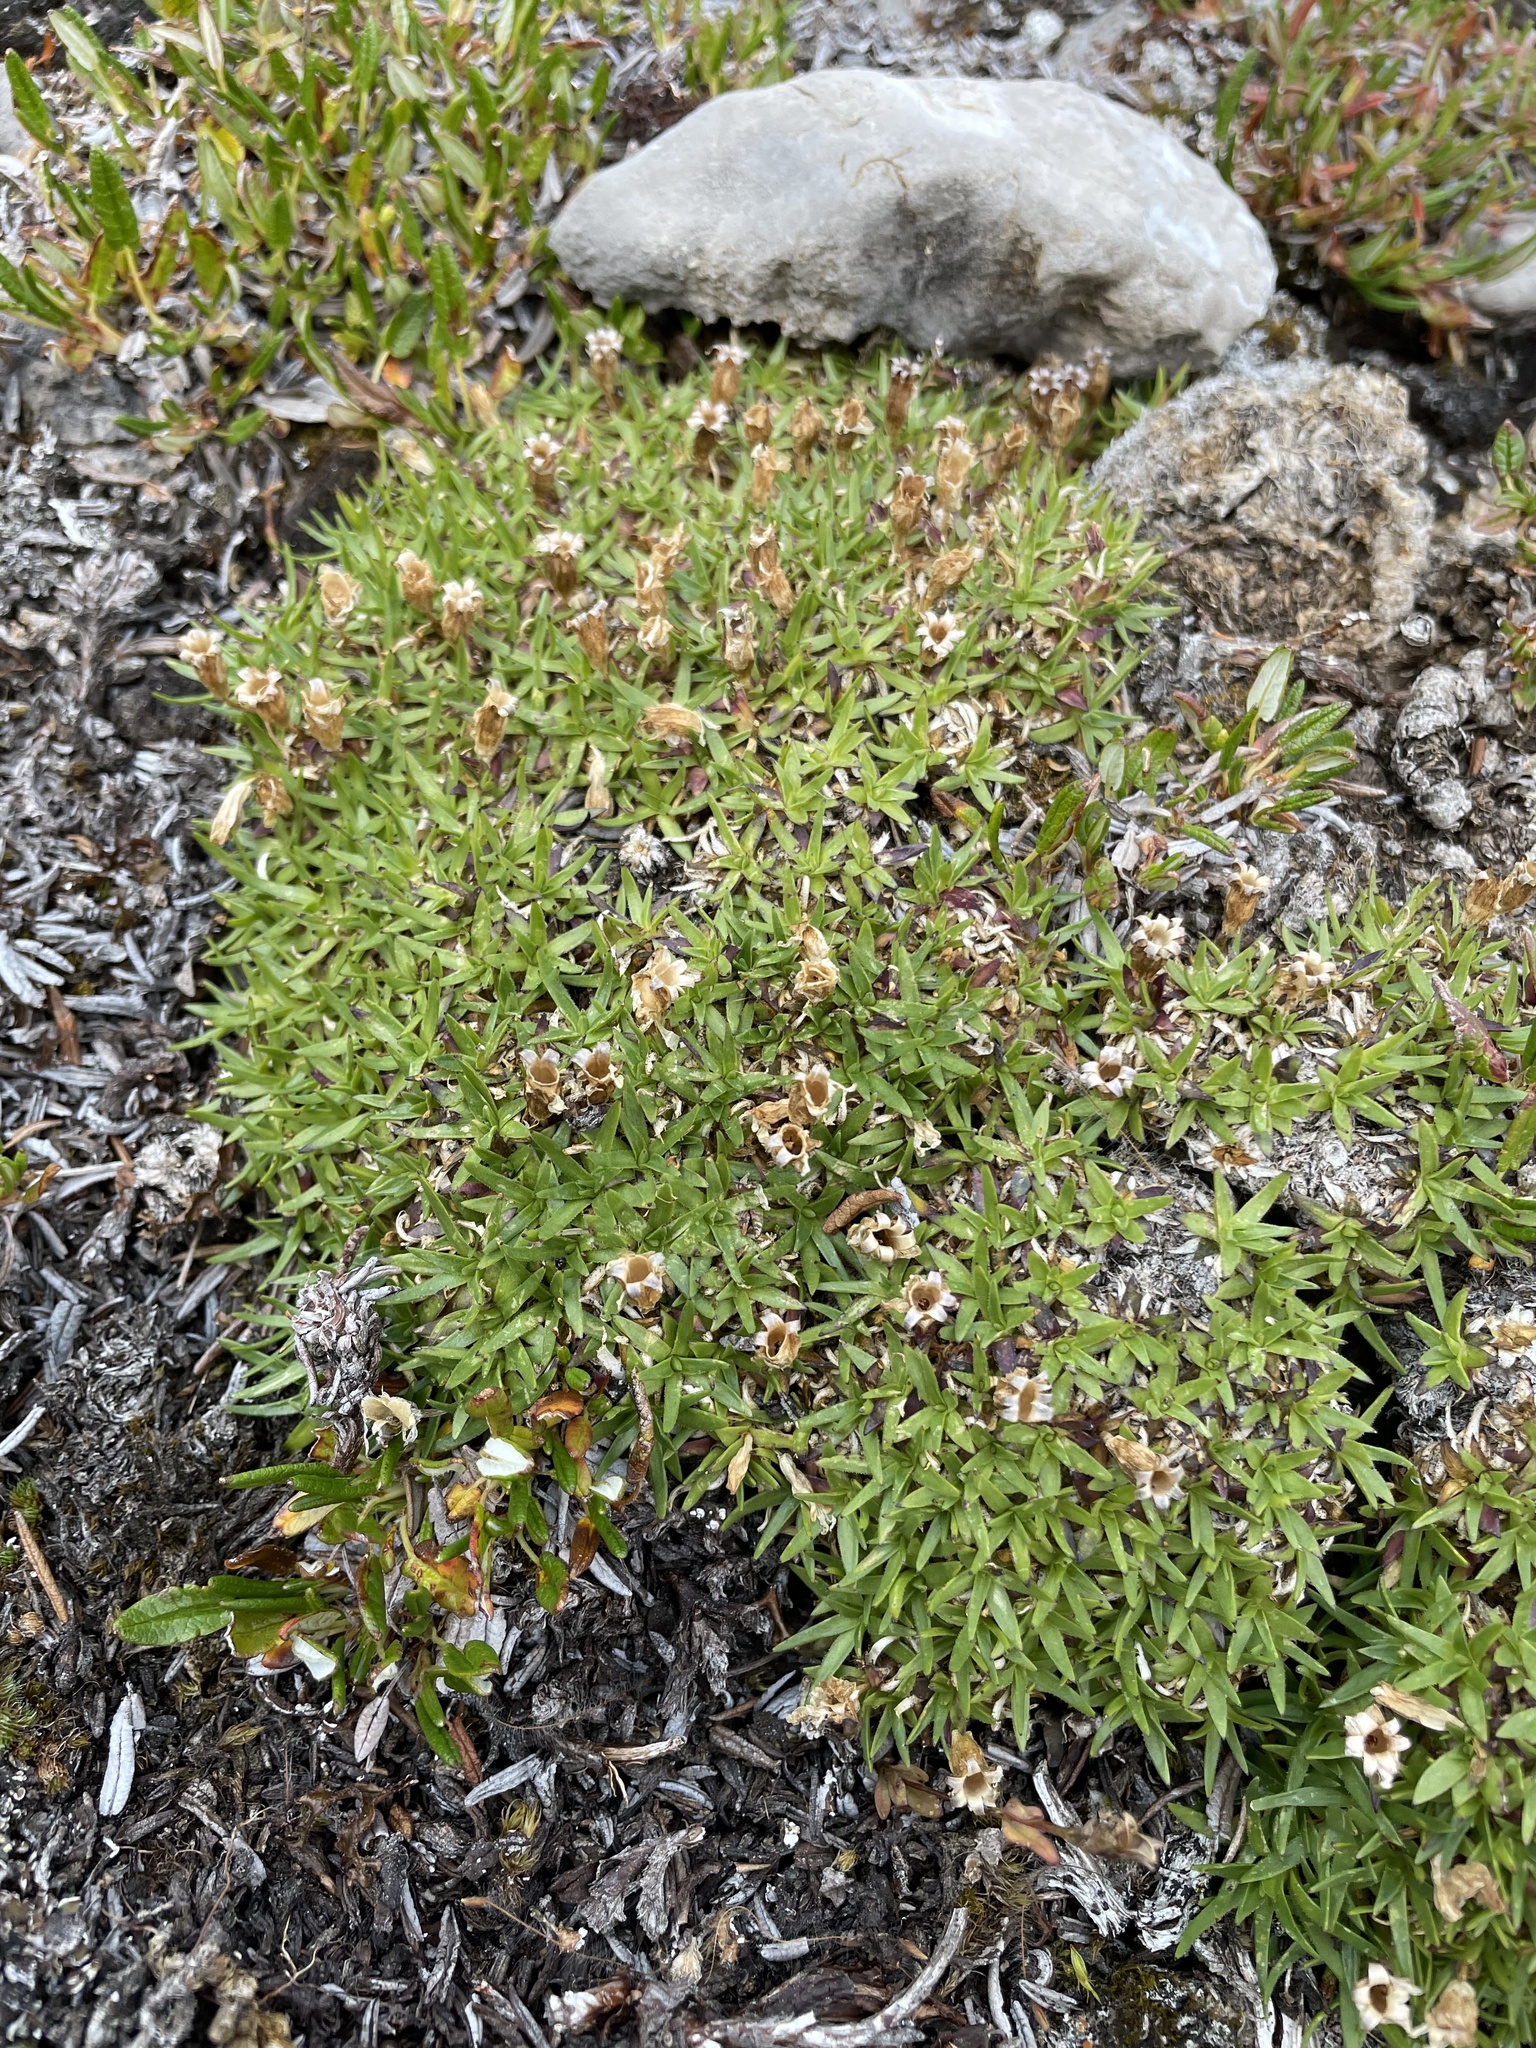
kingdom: Plantae
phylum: Tracheophyta
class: Magnoliopsida
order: Caryophyllales
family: Caryophyllaceae
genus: Silene
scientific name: Silene acaulis
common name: Moss campion
